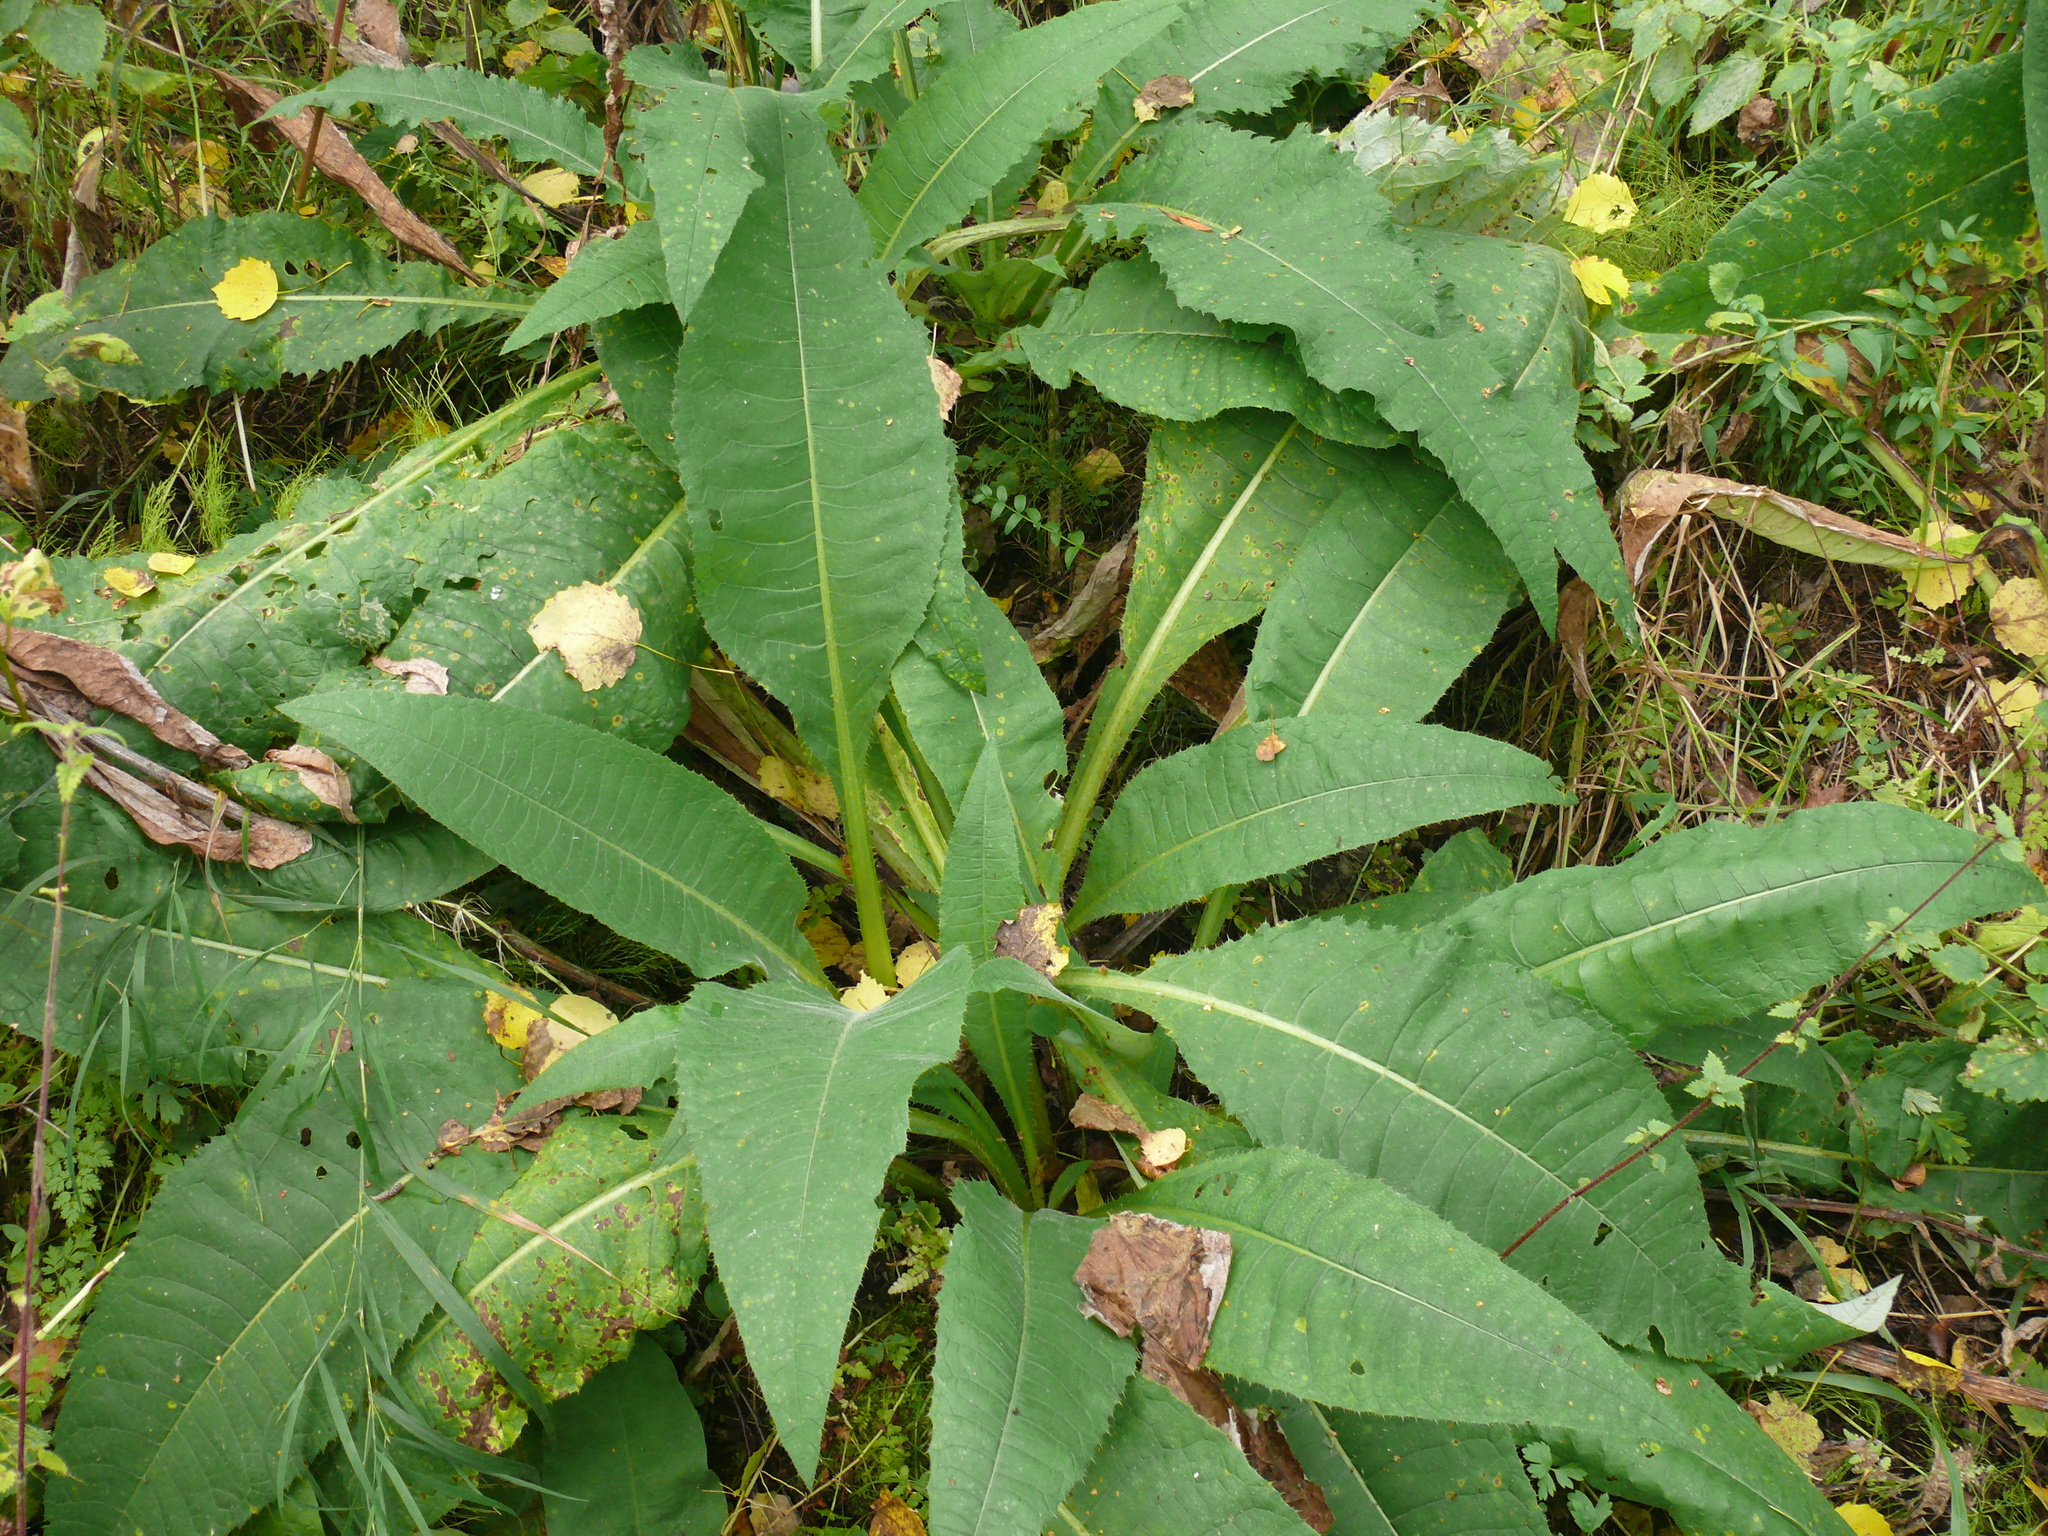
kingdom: Plantae
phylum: Tracheophyta
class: Magnoliopsida
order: Asterales
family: Asteraceae
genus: Cirsium
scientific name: Cirsium helenioides
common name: Melancholy thistle
